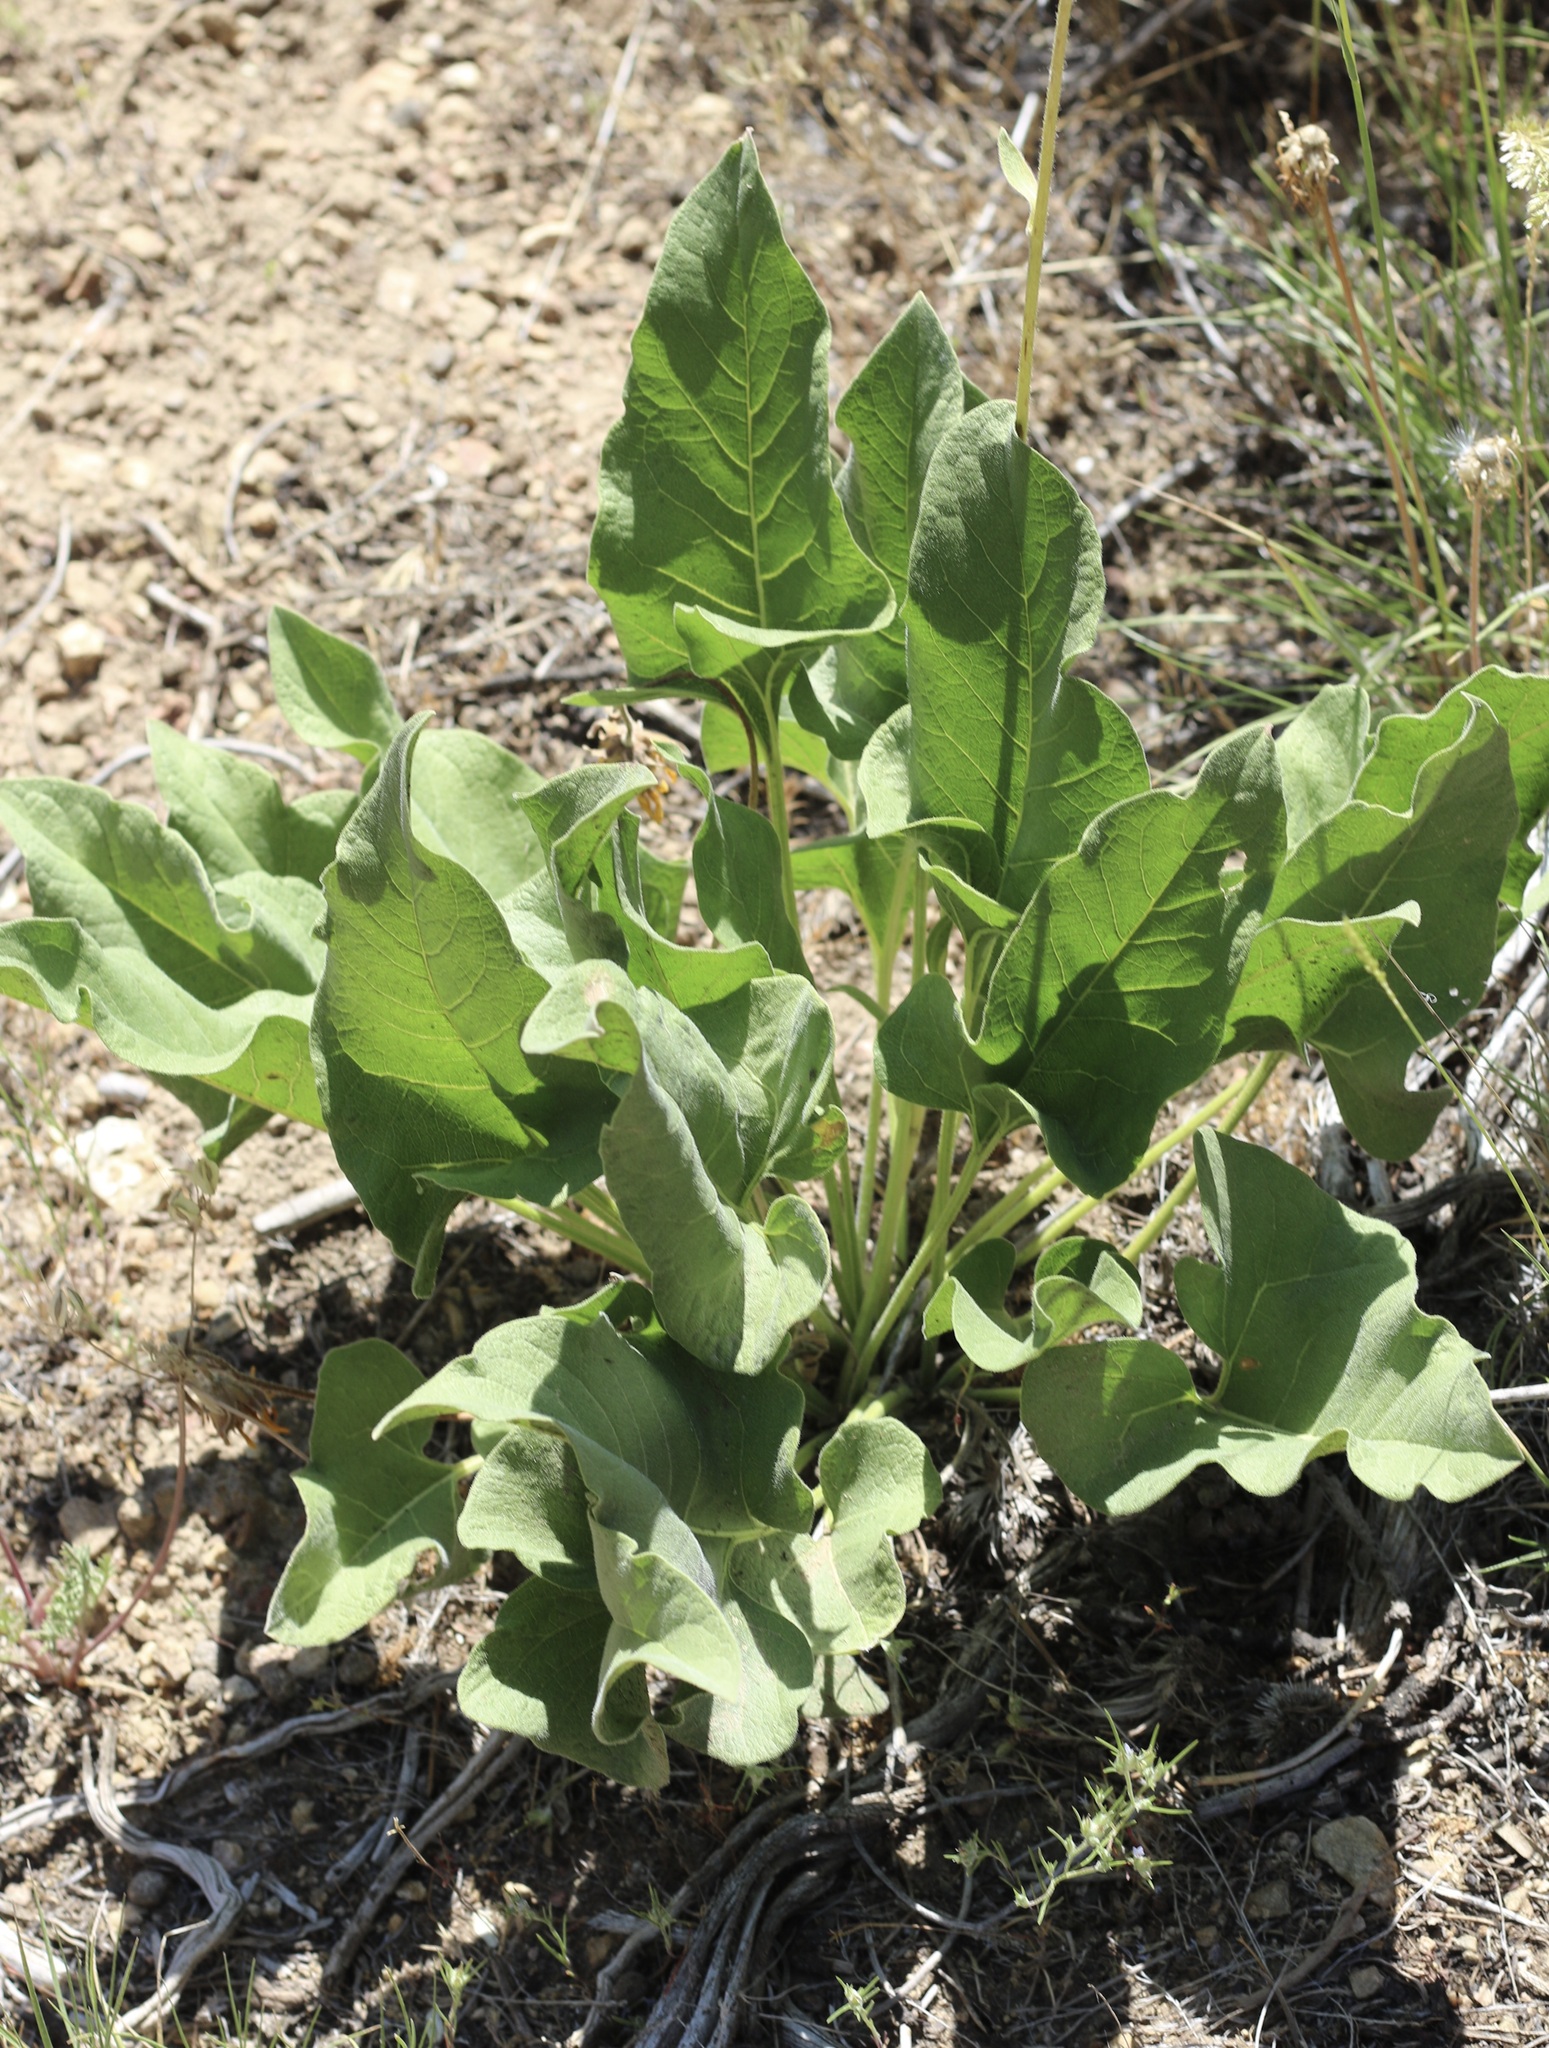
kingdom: Plantae
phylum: Tracheophyta
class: Magnoliopsida
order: Asterales
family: Asteraceae
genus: Balsamorhiza
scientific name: Balsamorhiza deltoidea
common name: Deltoid balsamroot
